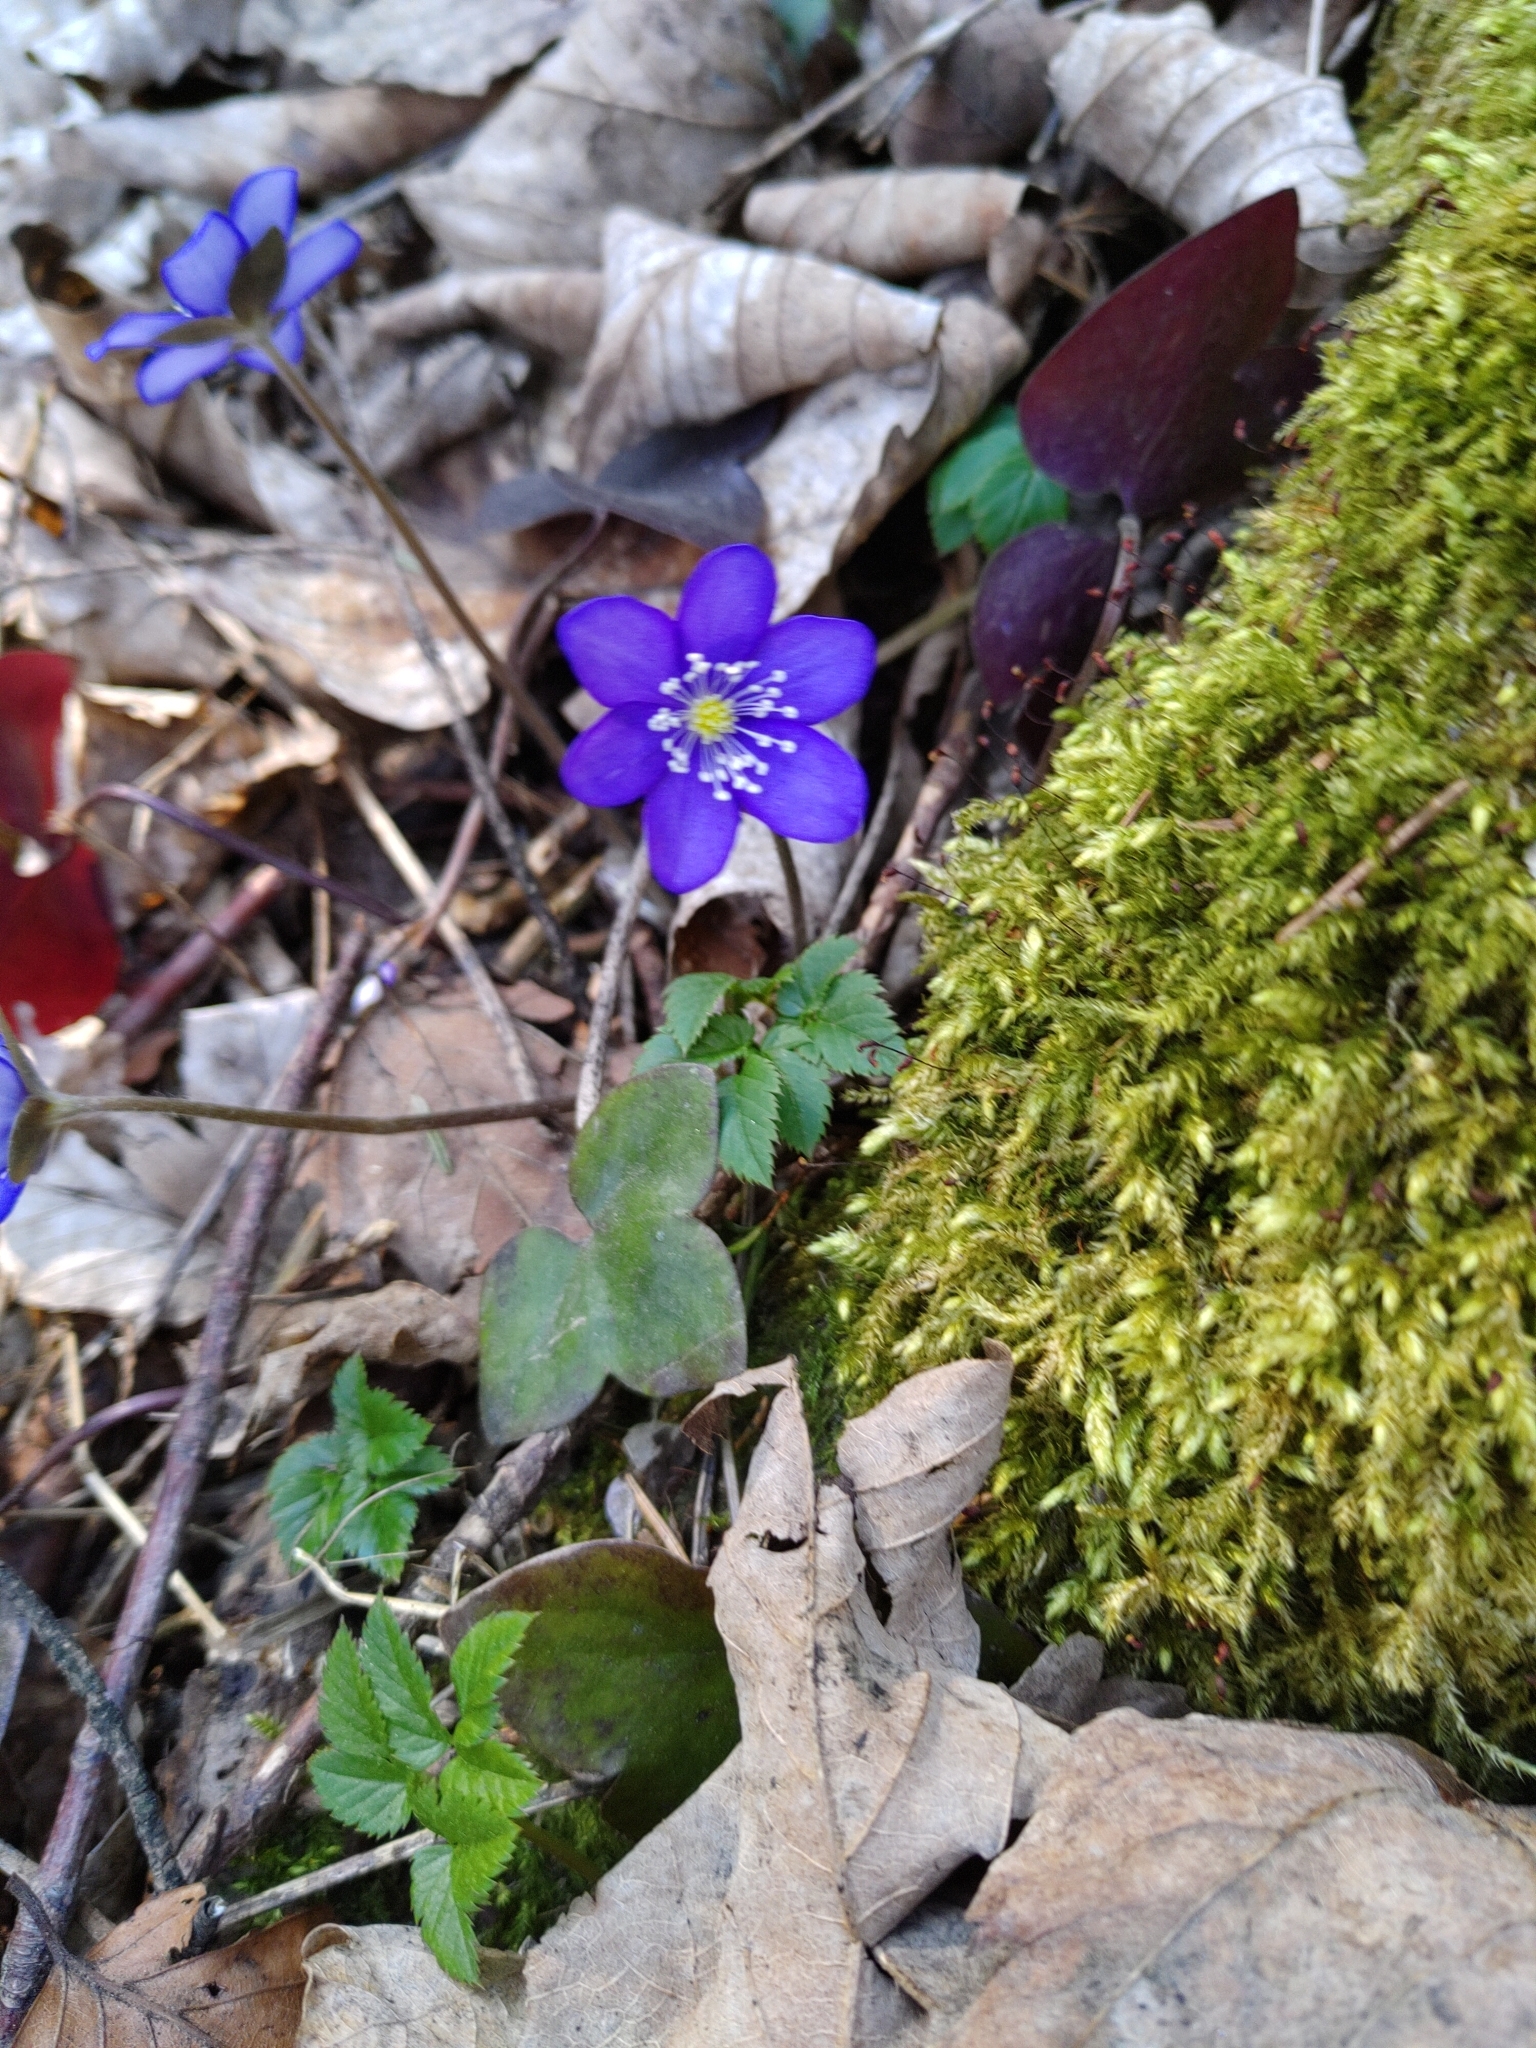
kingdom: Plantae
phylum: Tracheophyta
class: Magnoliopsida
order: Ranunculales
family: Ranunculaceae
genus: Hepatica
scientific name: Hepatica nobilis
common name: Liverleaf
